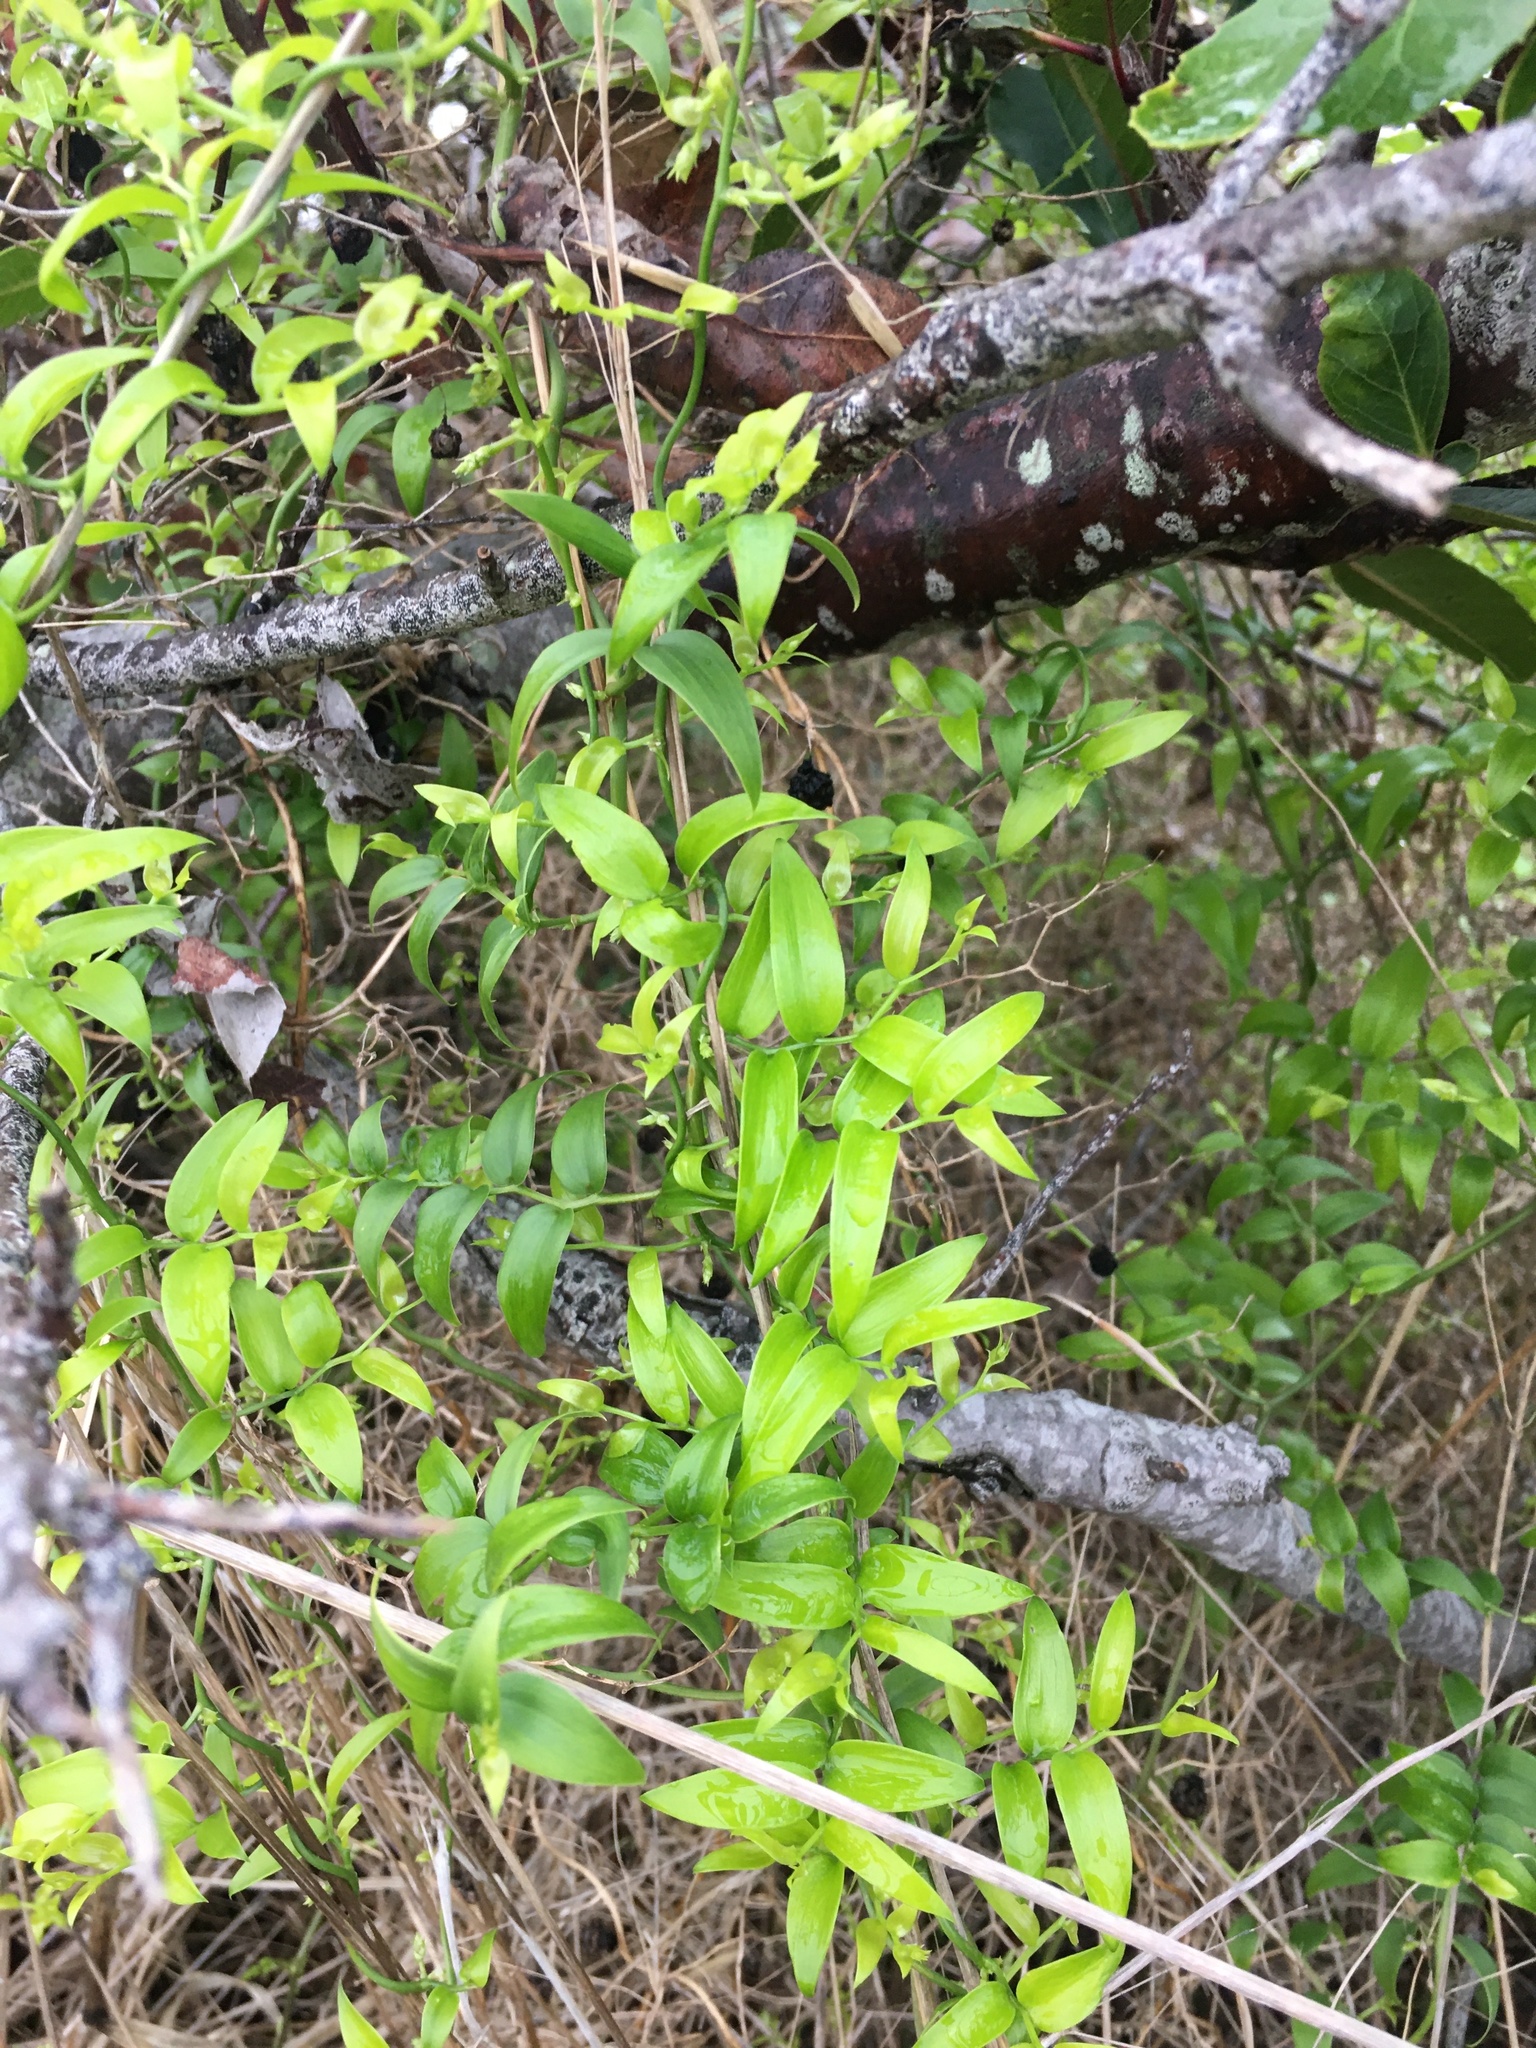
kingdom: Plantae
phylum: Tracheophyta
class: Liliopsida
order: Asparagales
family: Asparagaceae
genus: Asparagus
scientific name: Asparagus asparagoides
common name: African asparagus fern
